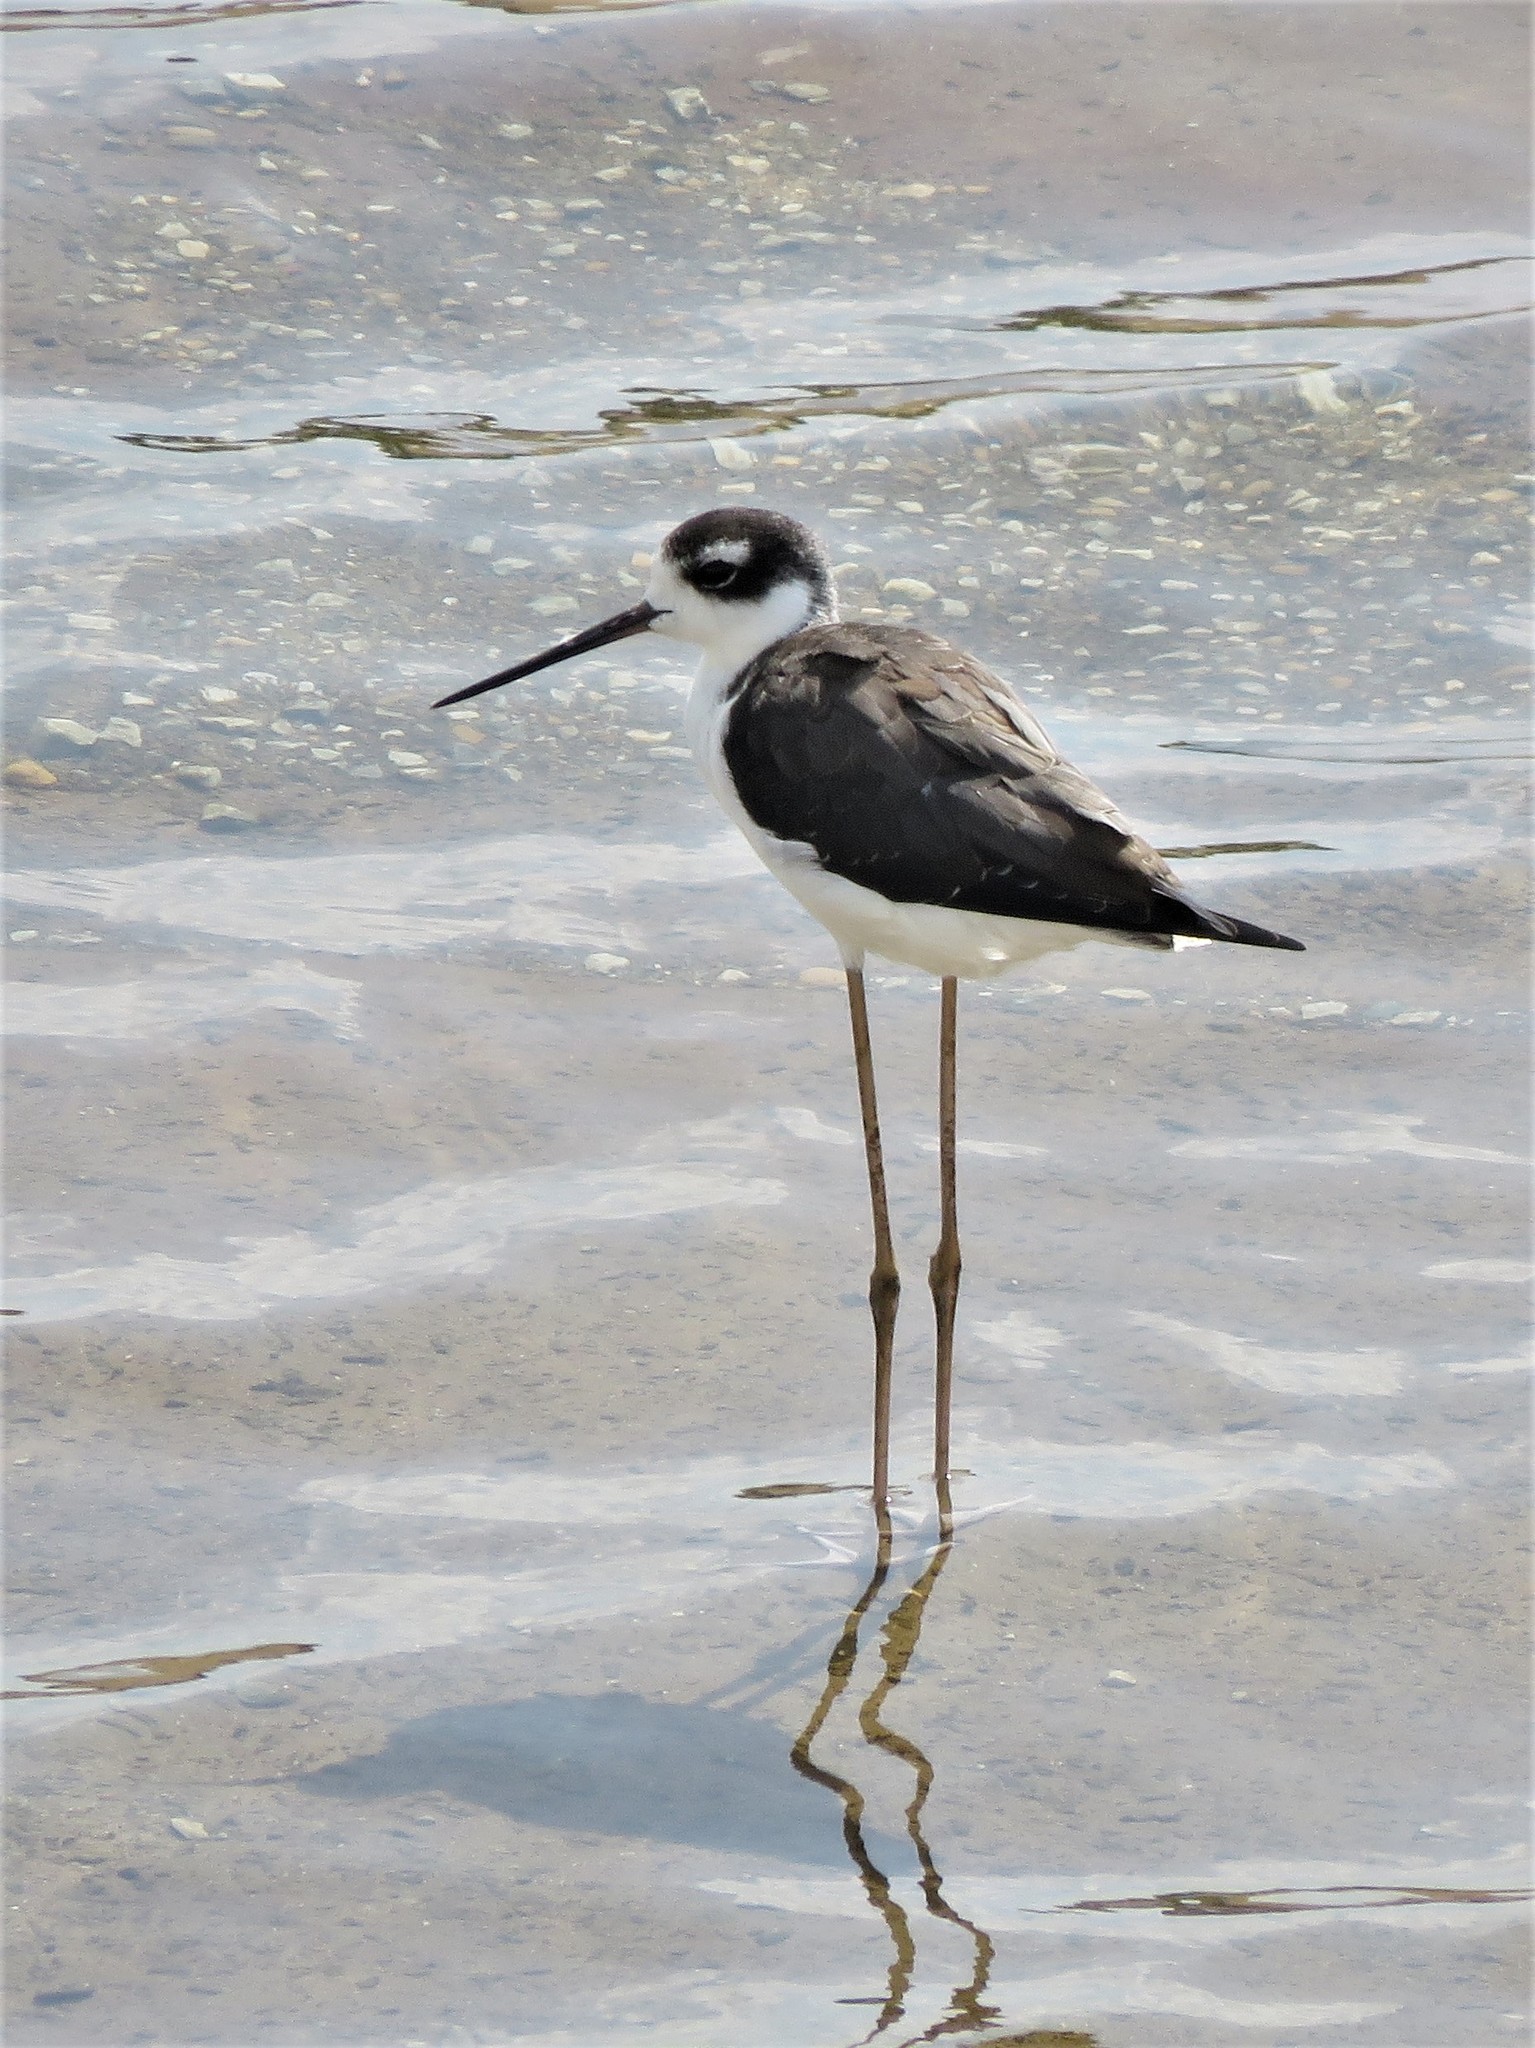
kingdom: Animalia
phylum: Chordata
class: Aves
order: Charadriiformes
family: Recurvirostridae
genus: Himantopus
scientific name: Himantopus mexicanus
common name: Black-necked stilt
